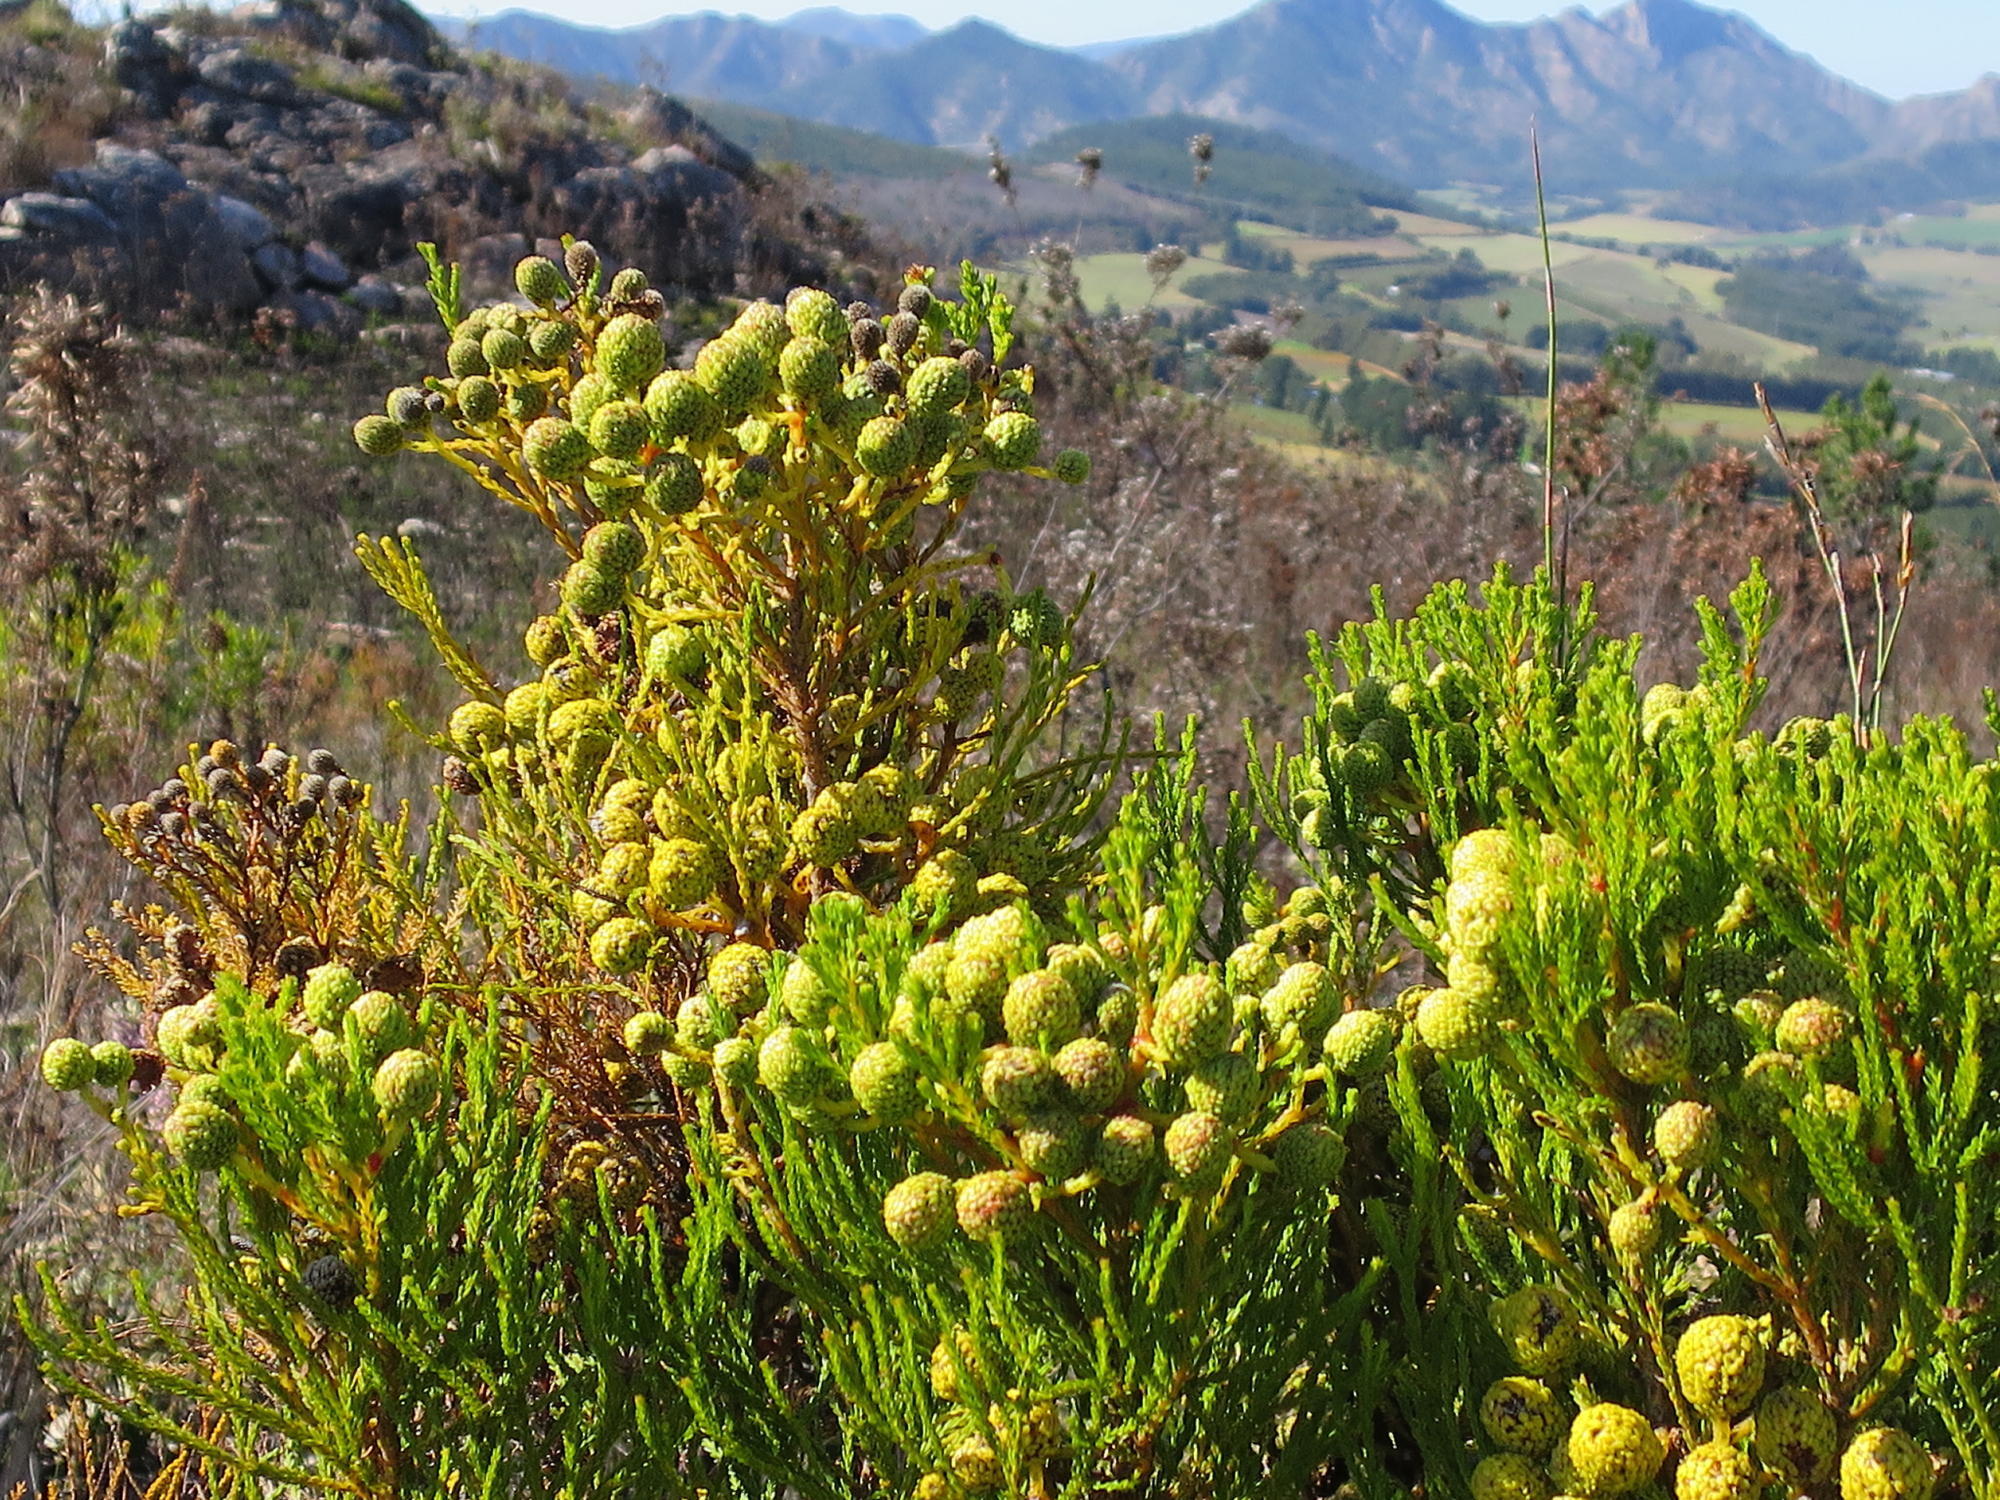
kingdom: Plantae
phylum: Tracheophyta
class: Magnoliopsida
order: Bruniales
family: Bruniaceae
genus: Berzelia
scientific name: Berzelia intermedia
